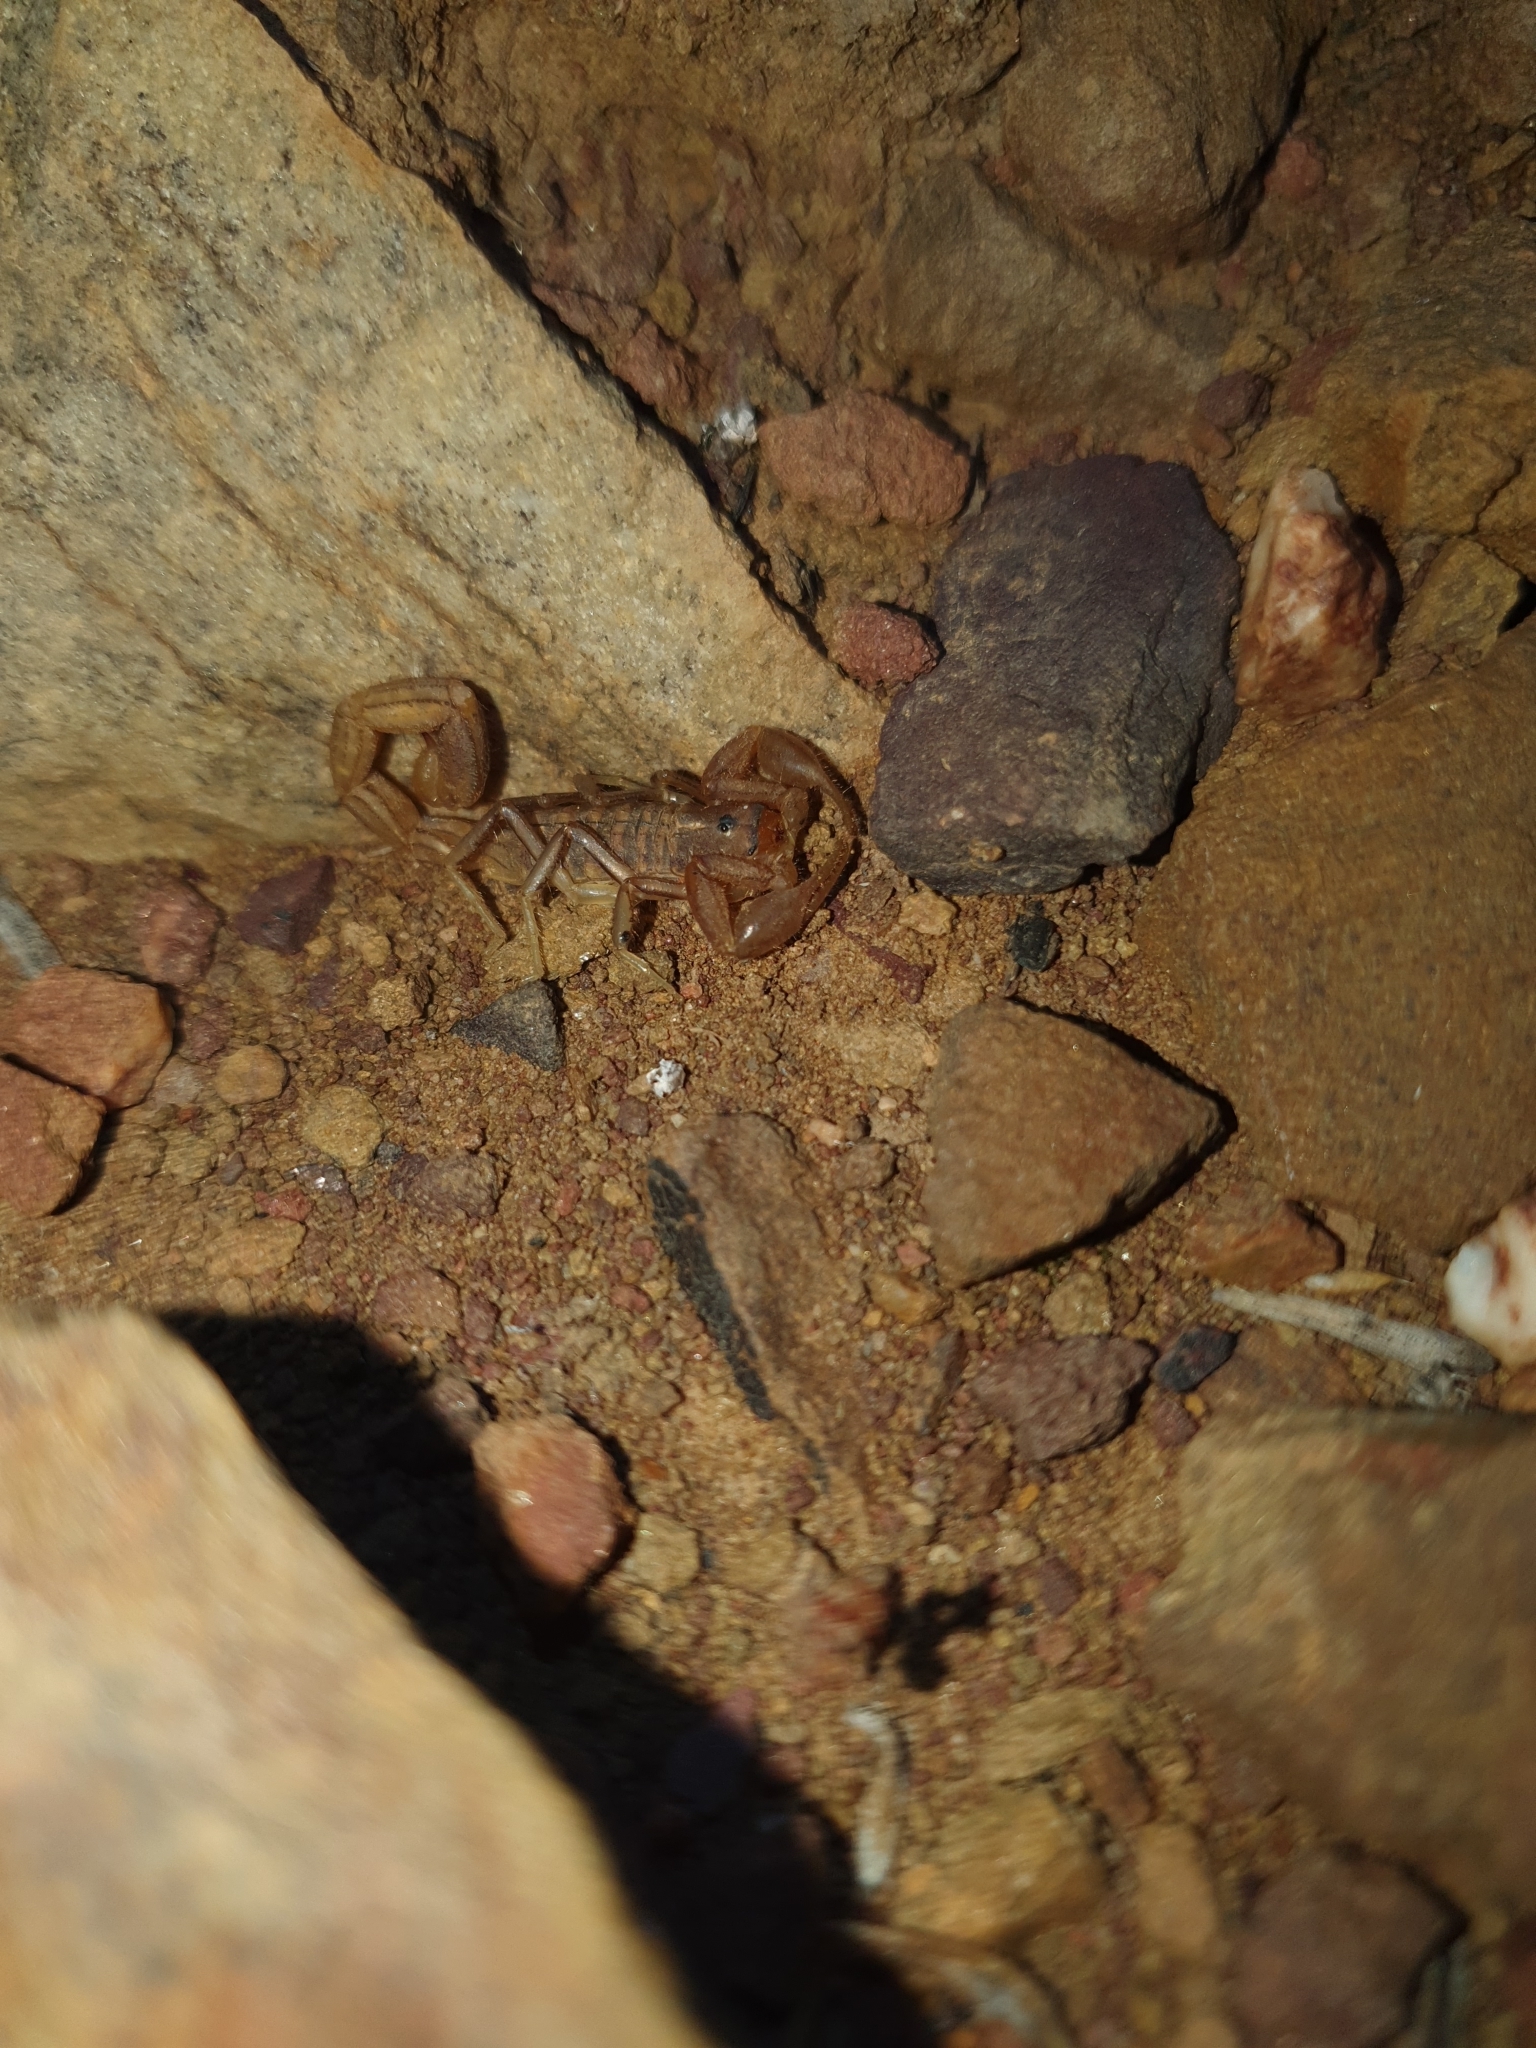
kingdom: Animalia
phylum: Arthropoda
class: Arachnida
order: Scorpiones
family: Buthidae
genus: Uroplectes
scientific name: Uroplectes carinatus
